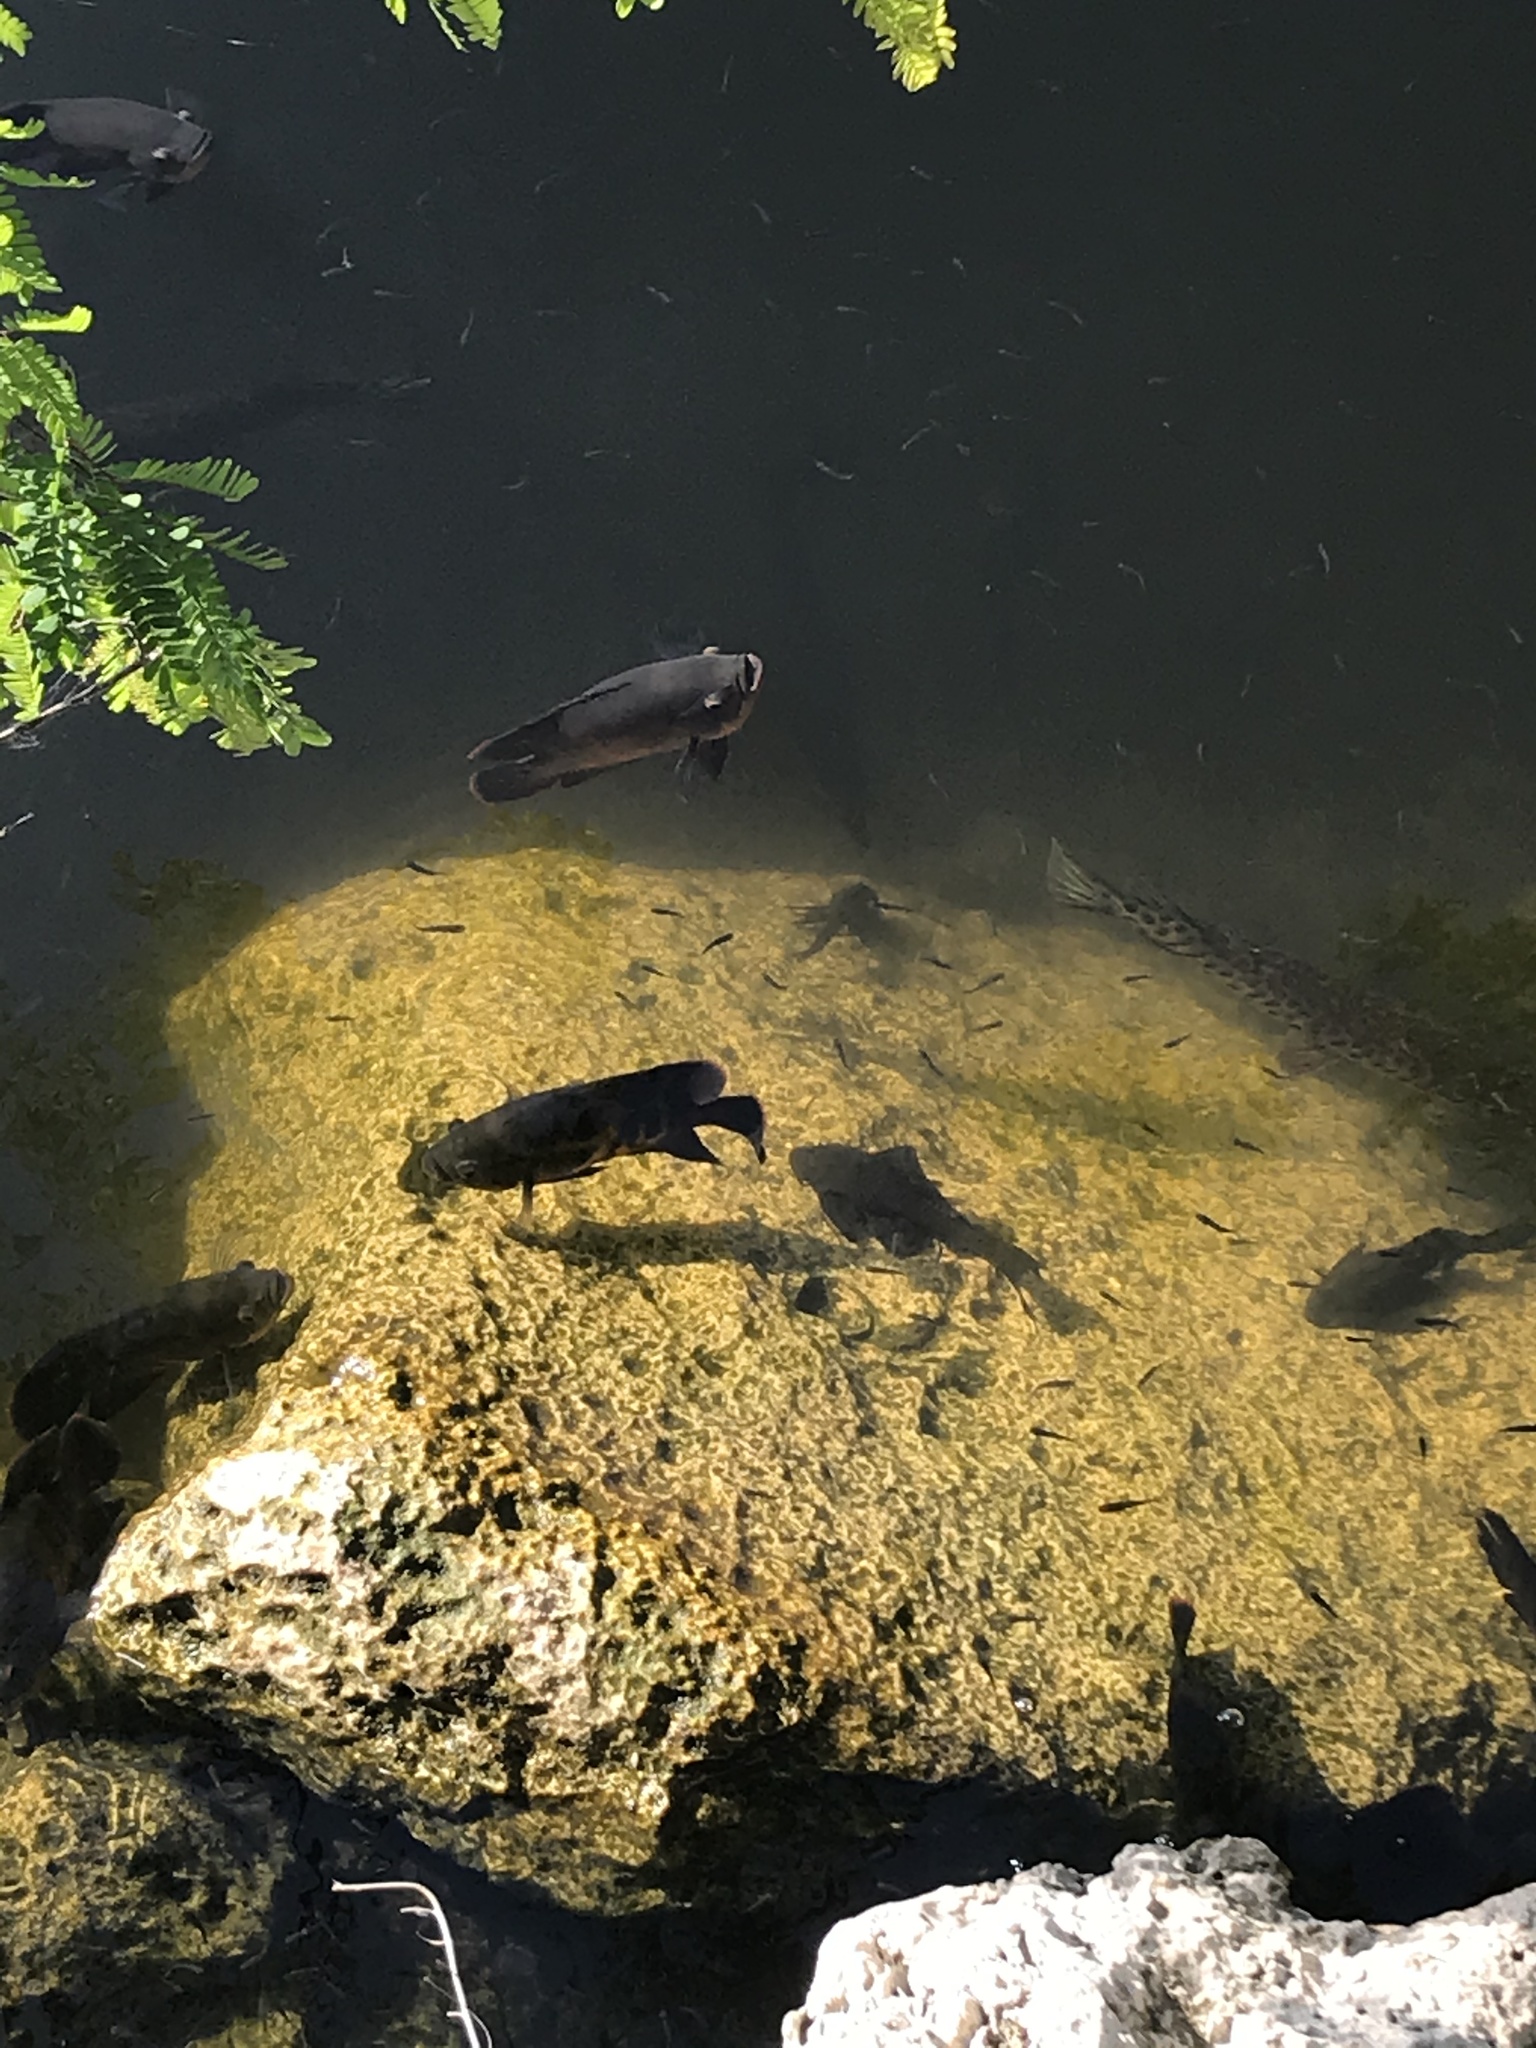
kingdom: Animalia
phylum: Chordata
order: Perciformes
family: Cichlidae
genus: Astronotus
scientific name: Astronotus ocellatus
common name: Oscar
